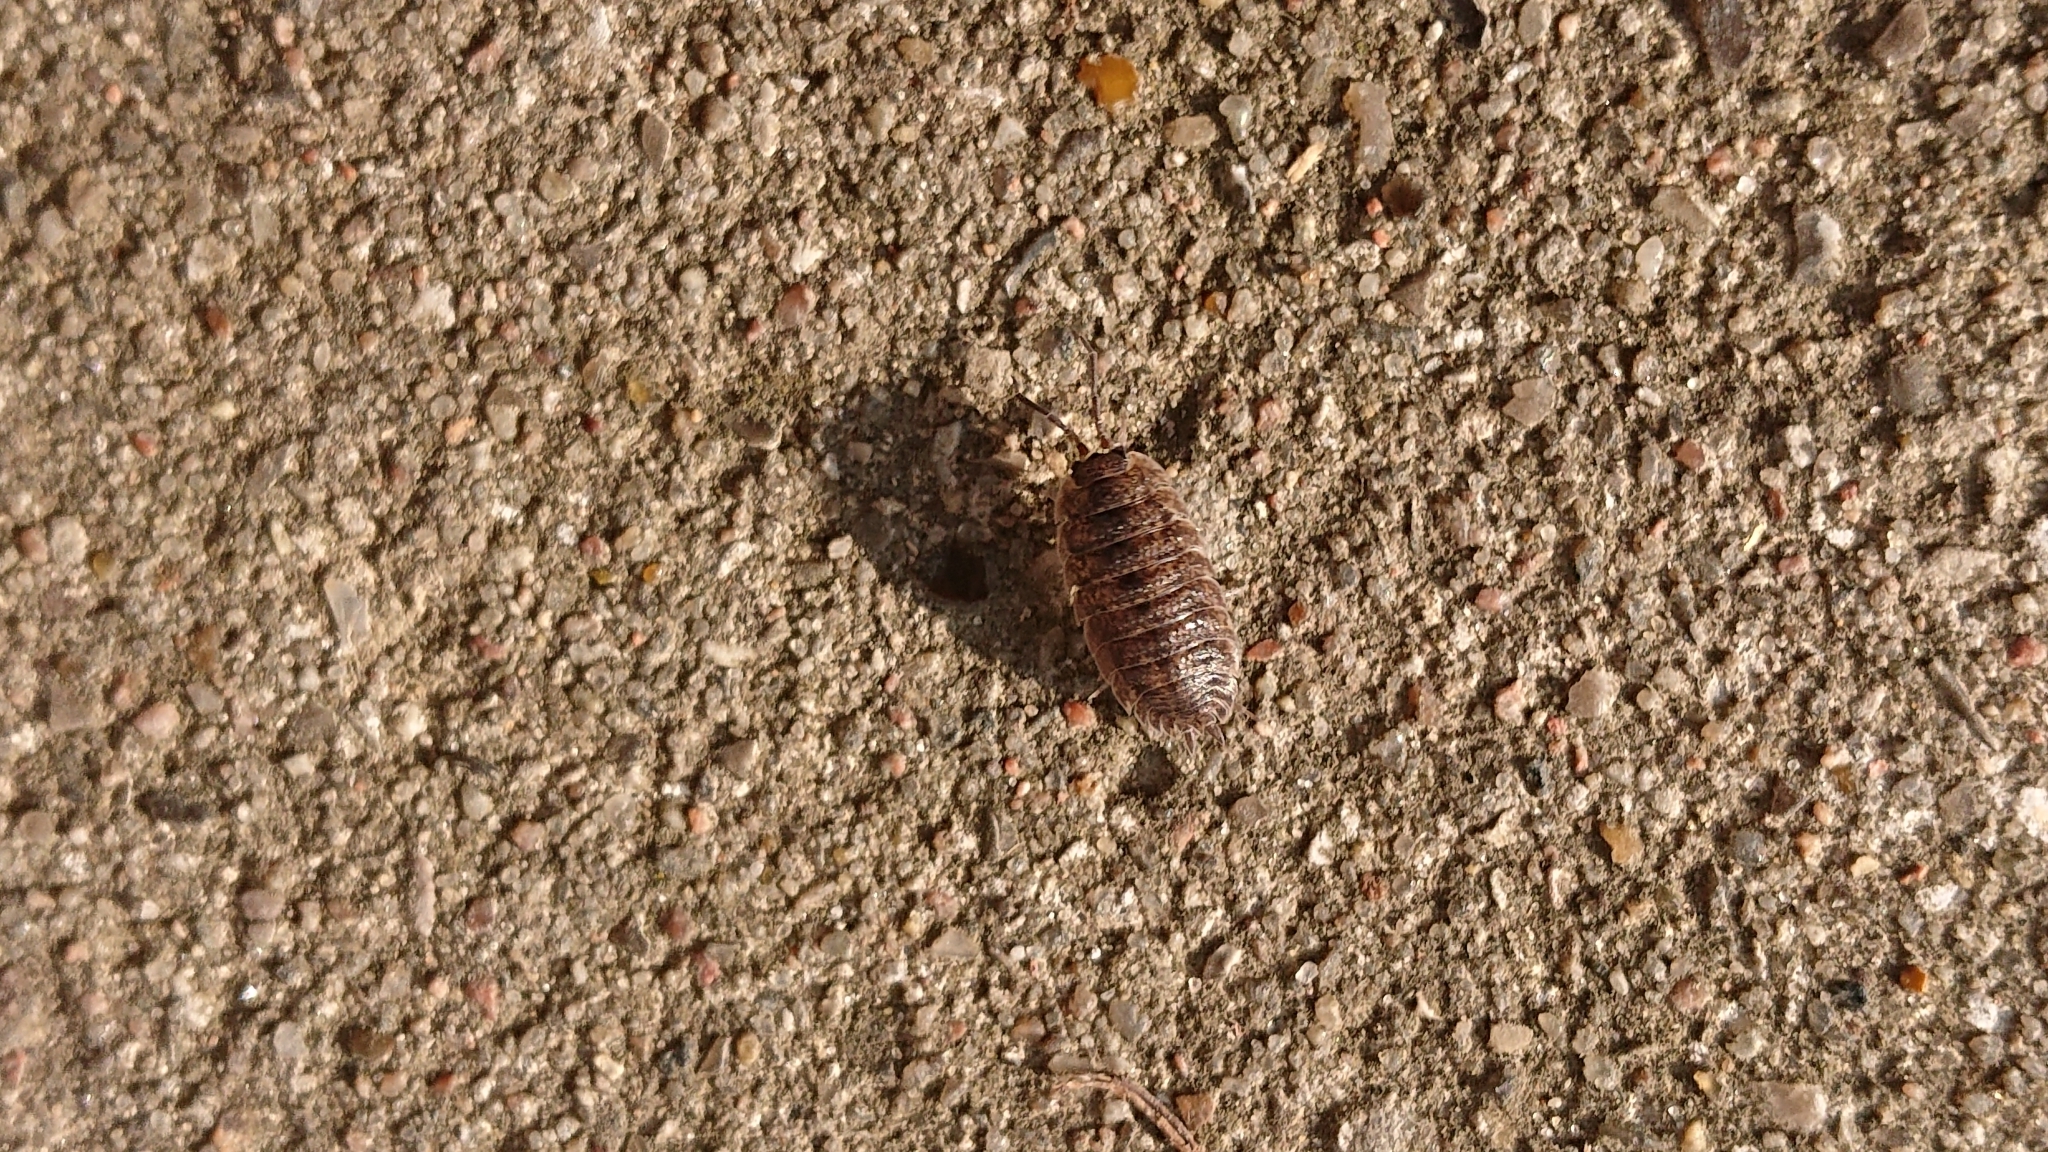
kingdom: Animalia
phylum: Arthropoda
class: Malacostraca
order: Isopoda
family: Porcellionidae
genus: Porcellio
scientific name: Porcellio scaber
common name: Common rough woodlouse
